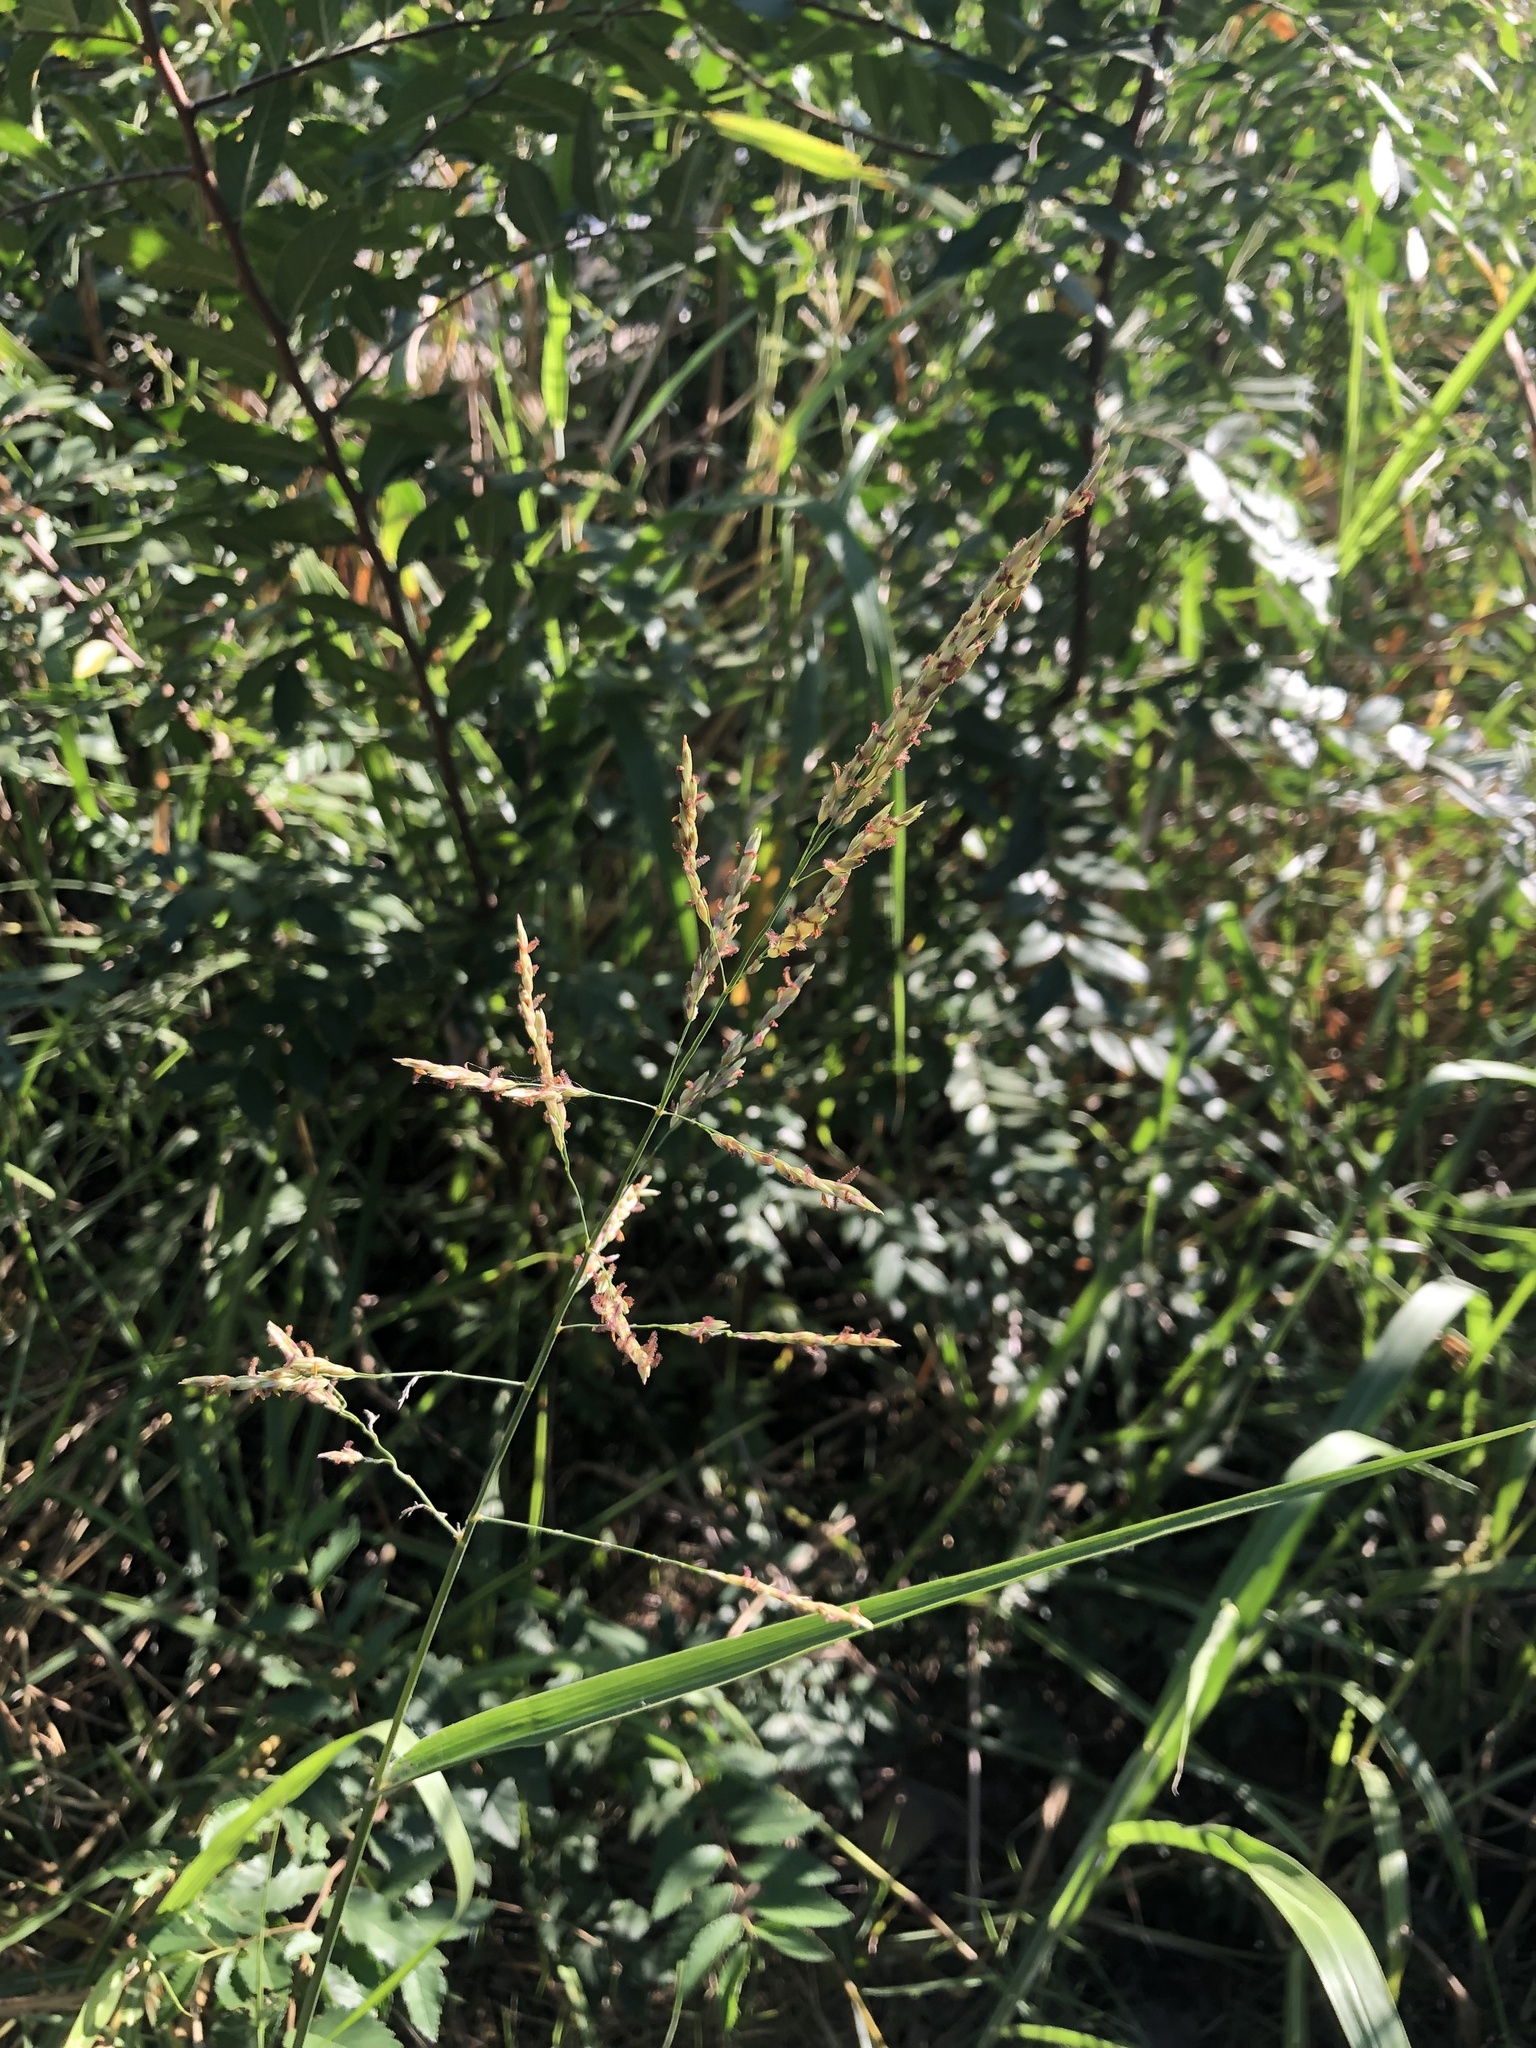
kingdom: Plantae
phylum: Tracheophyta
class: Liliopsida
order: Poales
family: Poaceae
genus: Sorghum
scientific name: Sorghum halepense
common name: Johnson-grass
